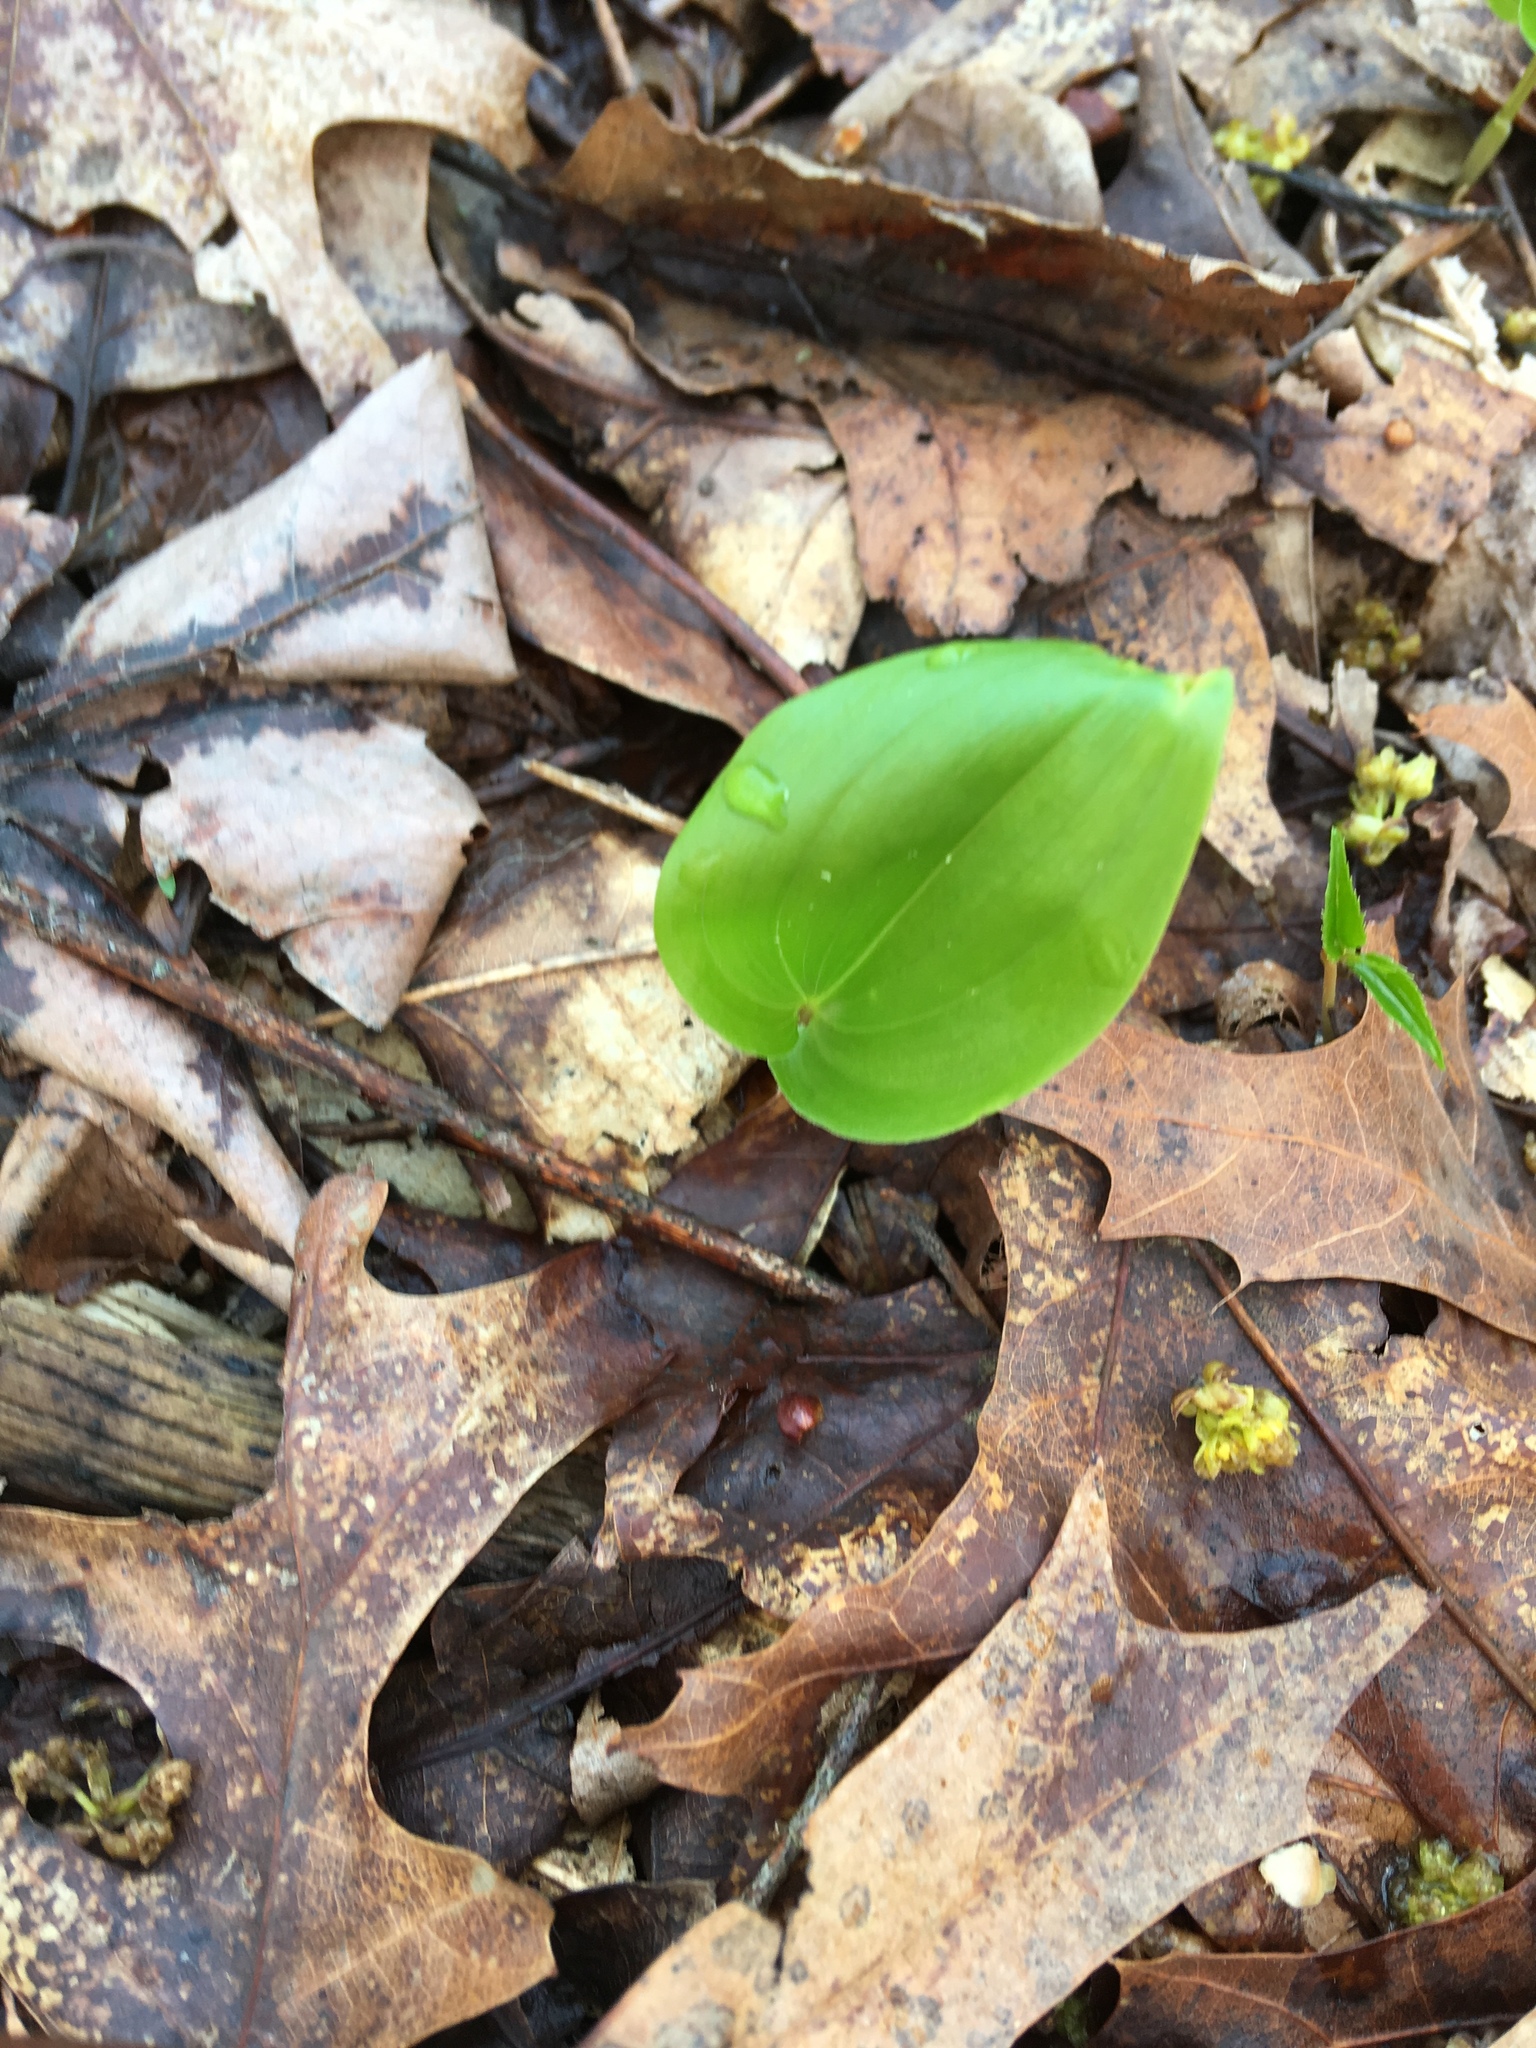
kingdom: Plantae
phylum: Tracheophyta
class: Liliopsida
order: Asparagales
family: Asparagaceae
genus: Maianthemum
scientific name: Maianthemum canadense
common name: False lily-of-the-valley
